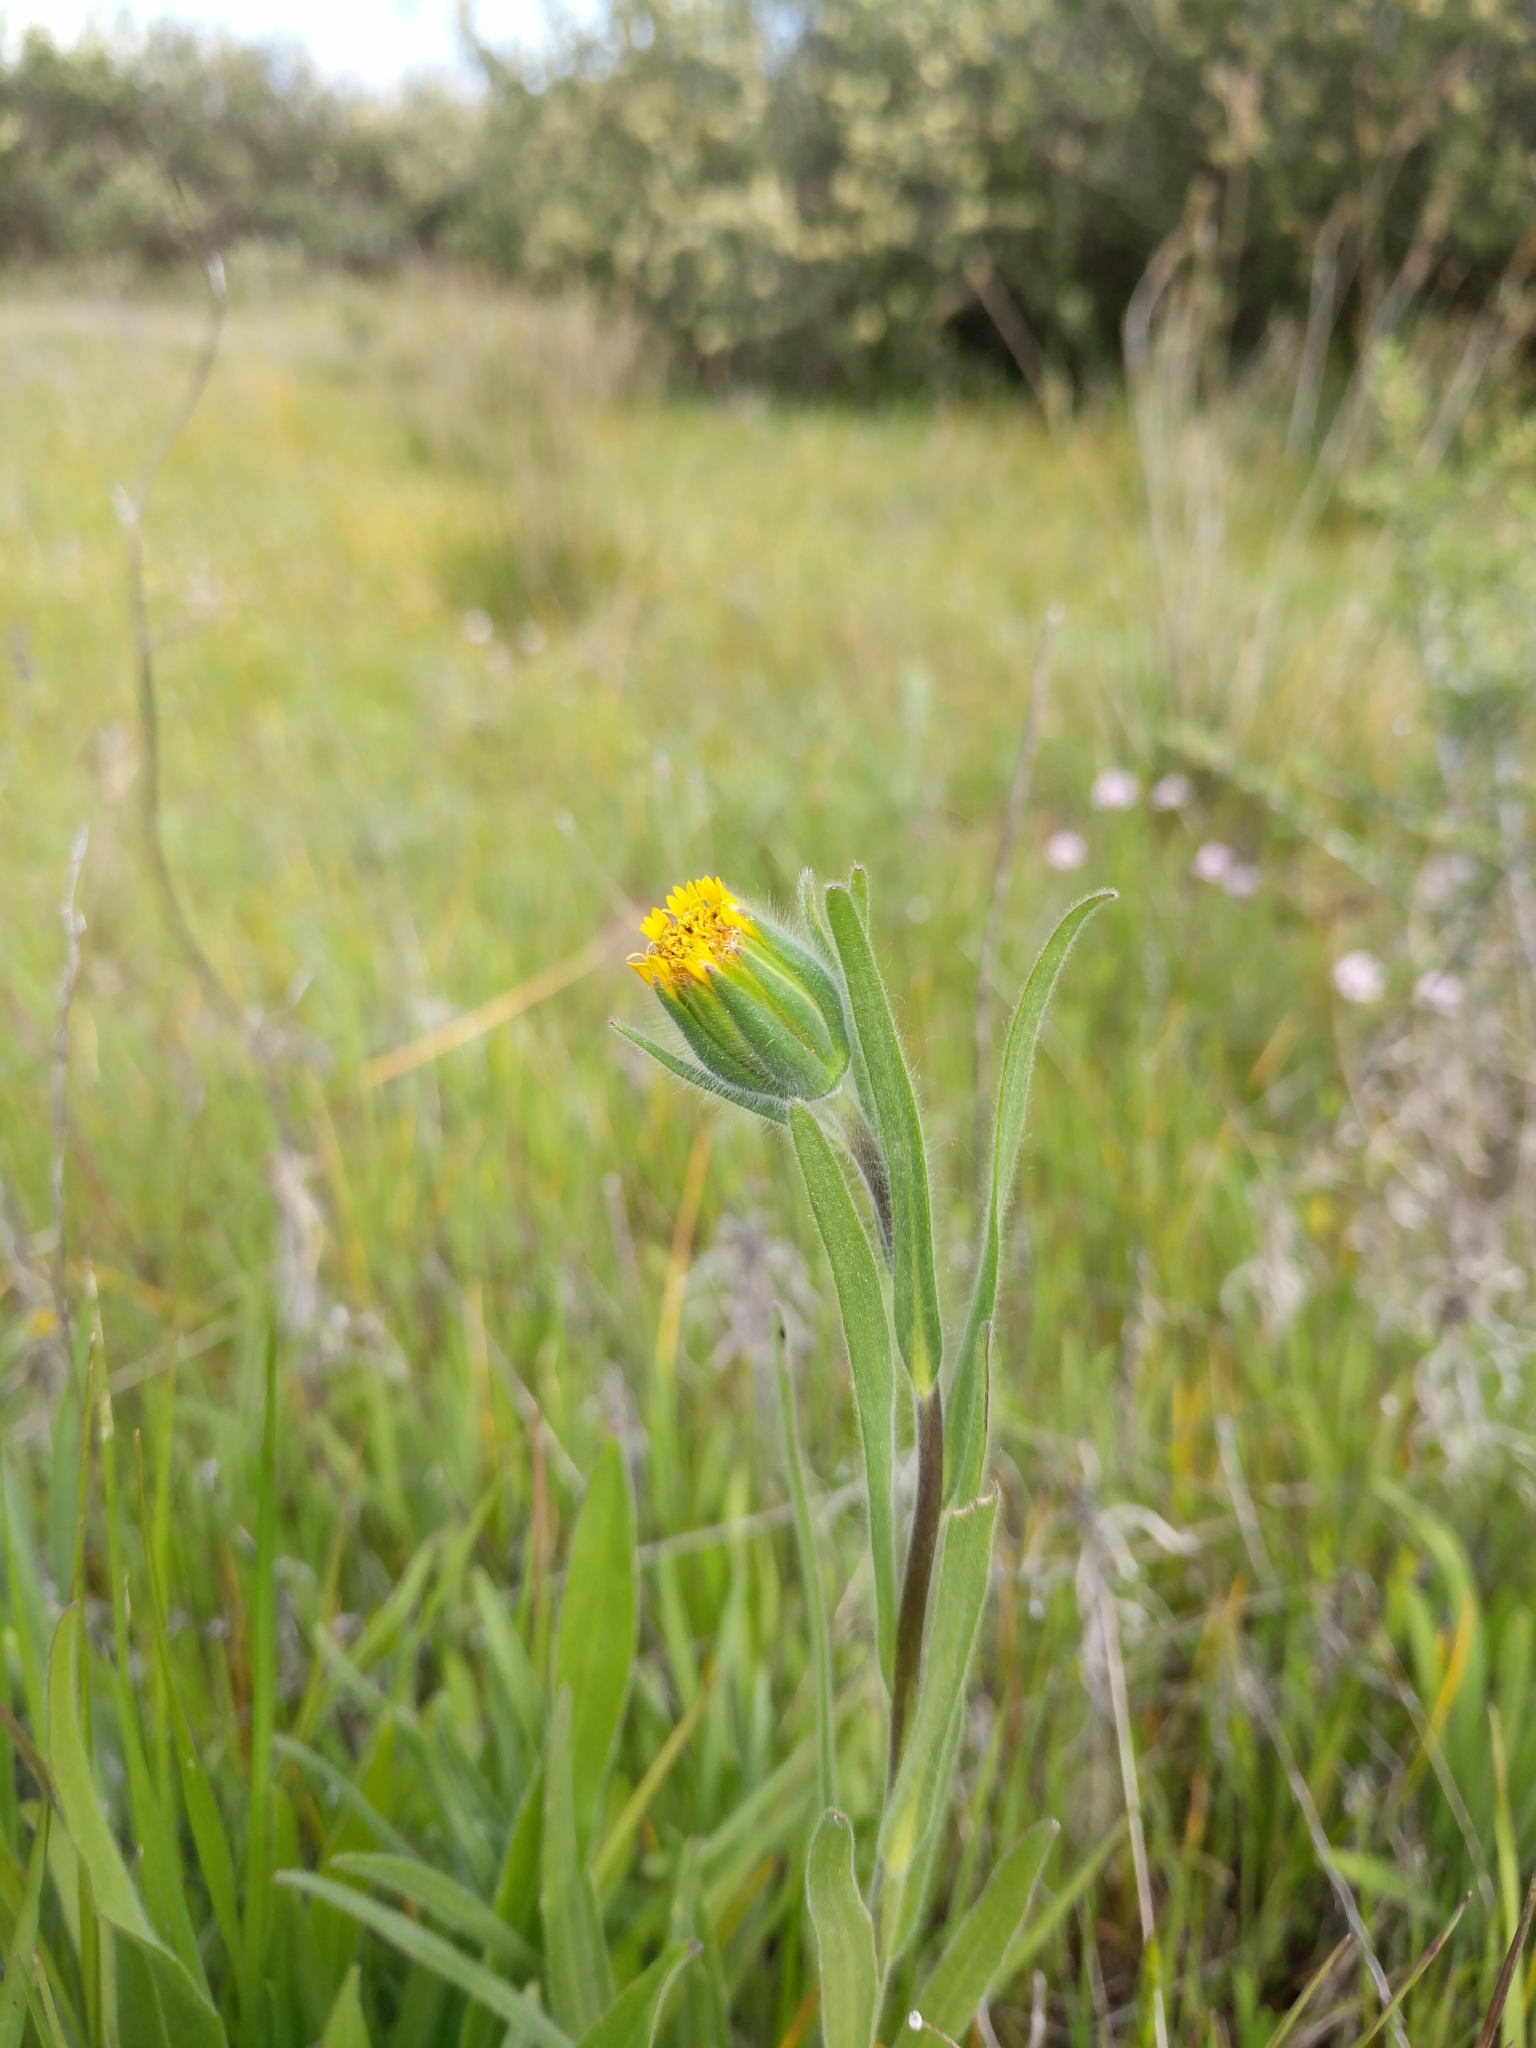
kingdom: Plantae
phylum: Tracheophyta
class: Magnoliopsida
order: Asterales
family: Asteraceae
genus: Achyrachaena
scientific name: Achyrachaena mollis
